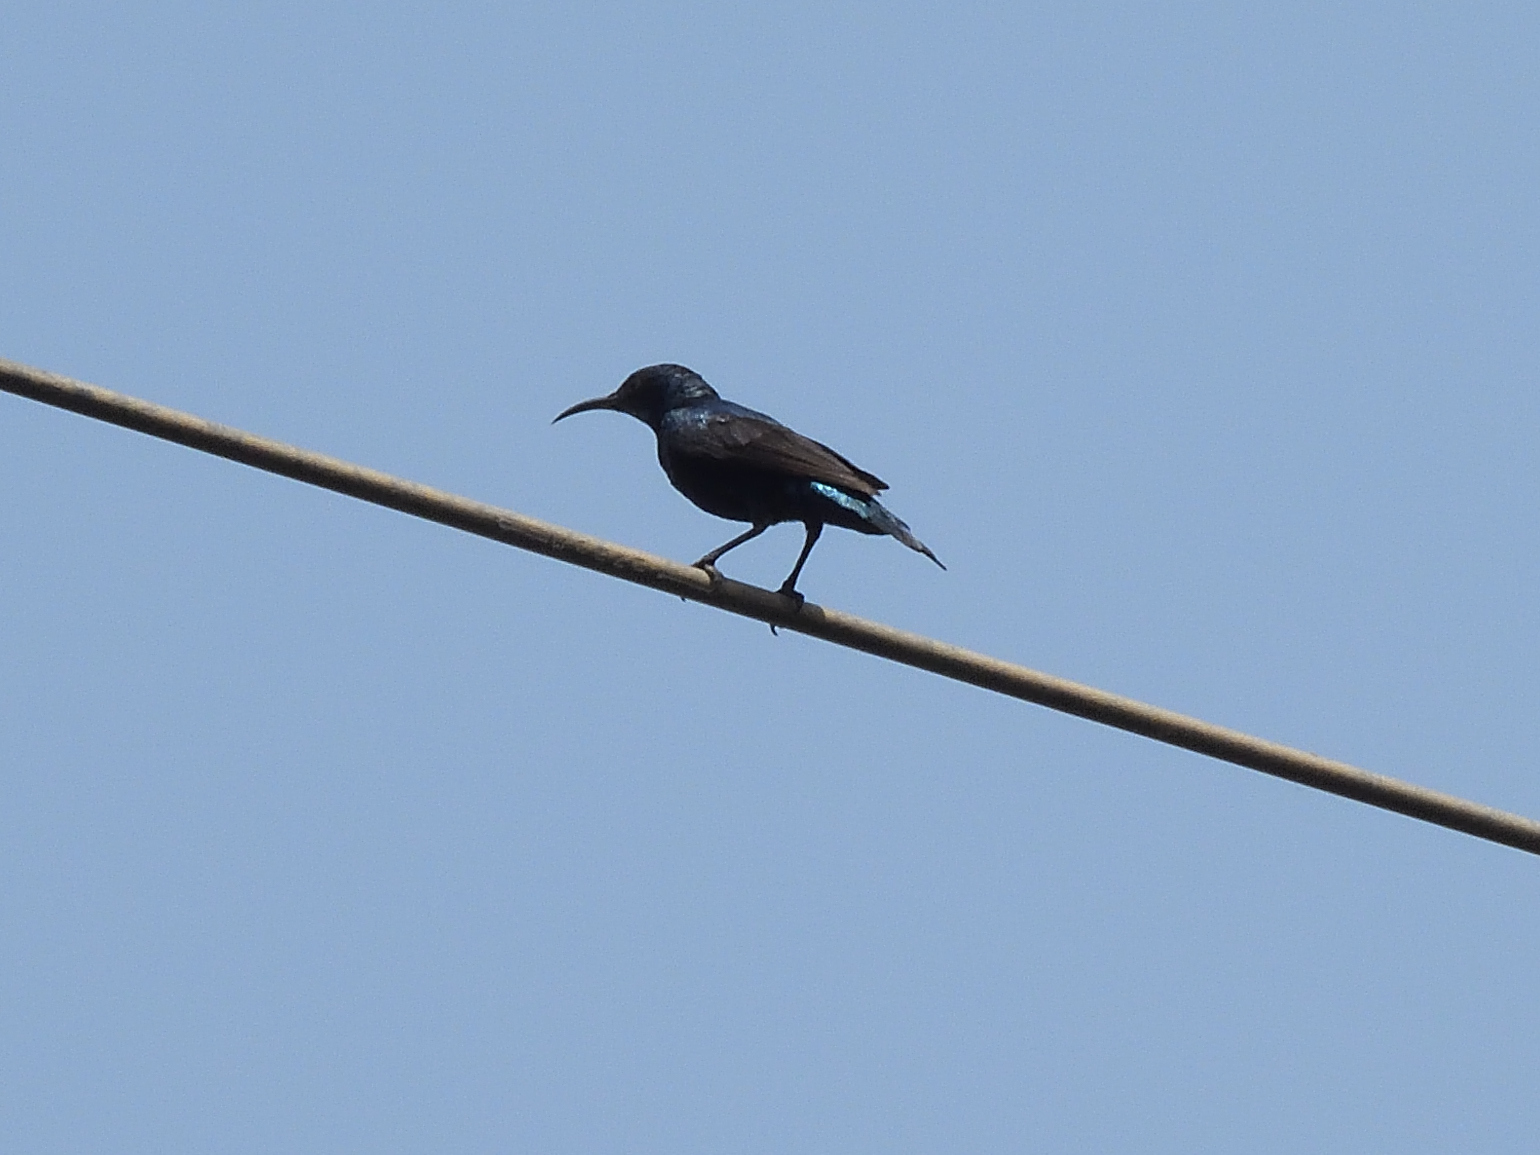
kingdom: Animalia
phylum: Chordata
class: Aves
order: Passeriformes
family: Nectariniidae
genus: Cinnyris
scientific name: Cinnyris asiaticus
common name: Purple sunbird
